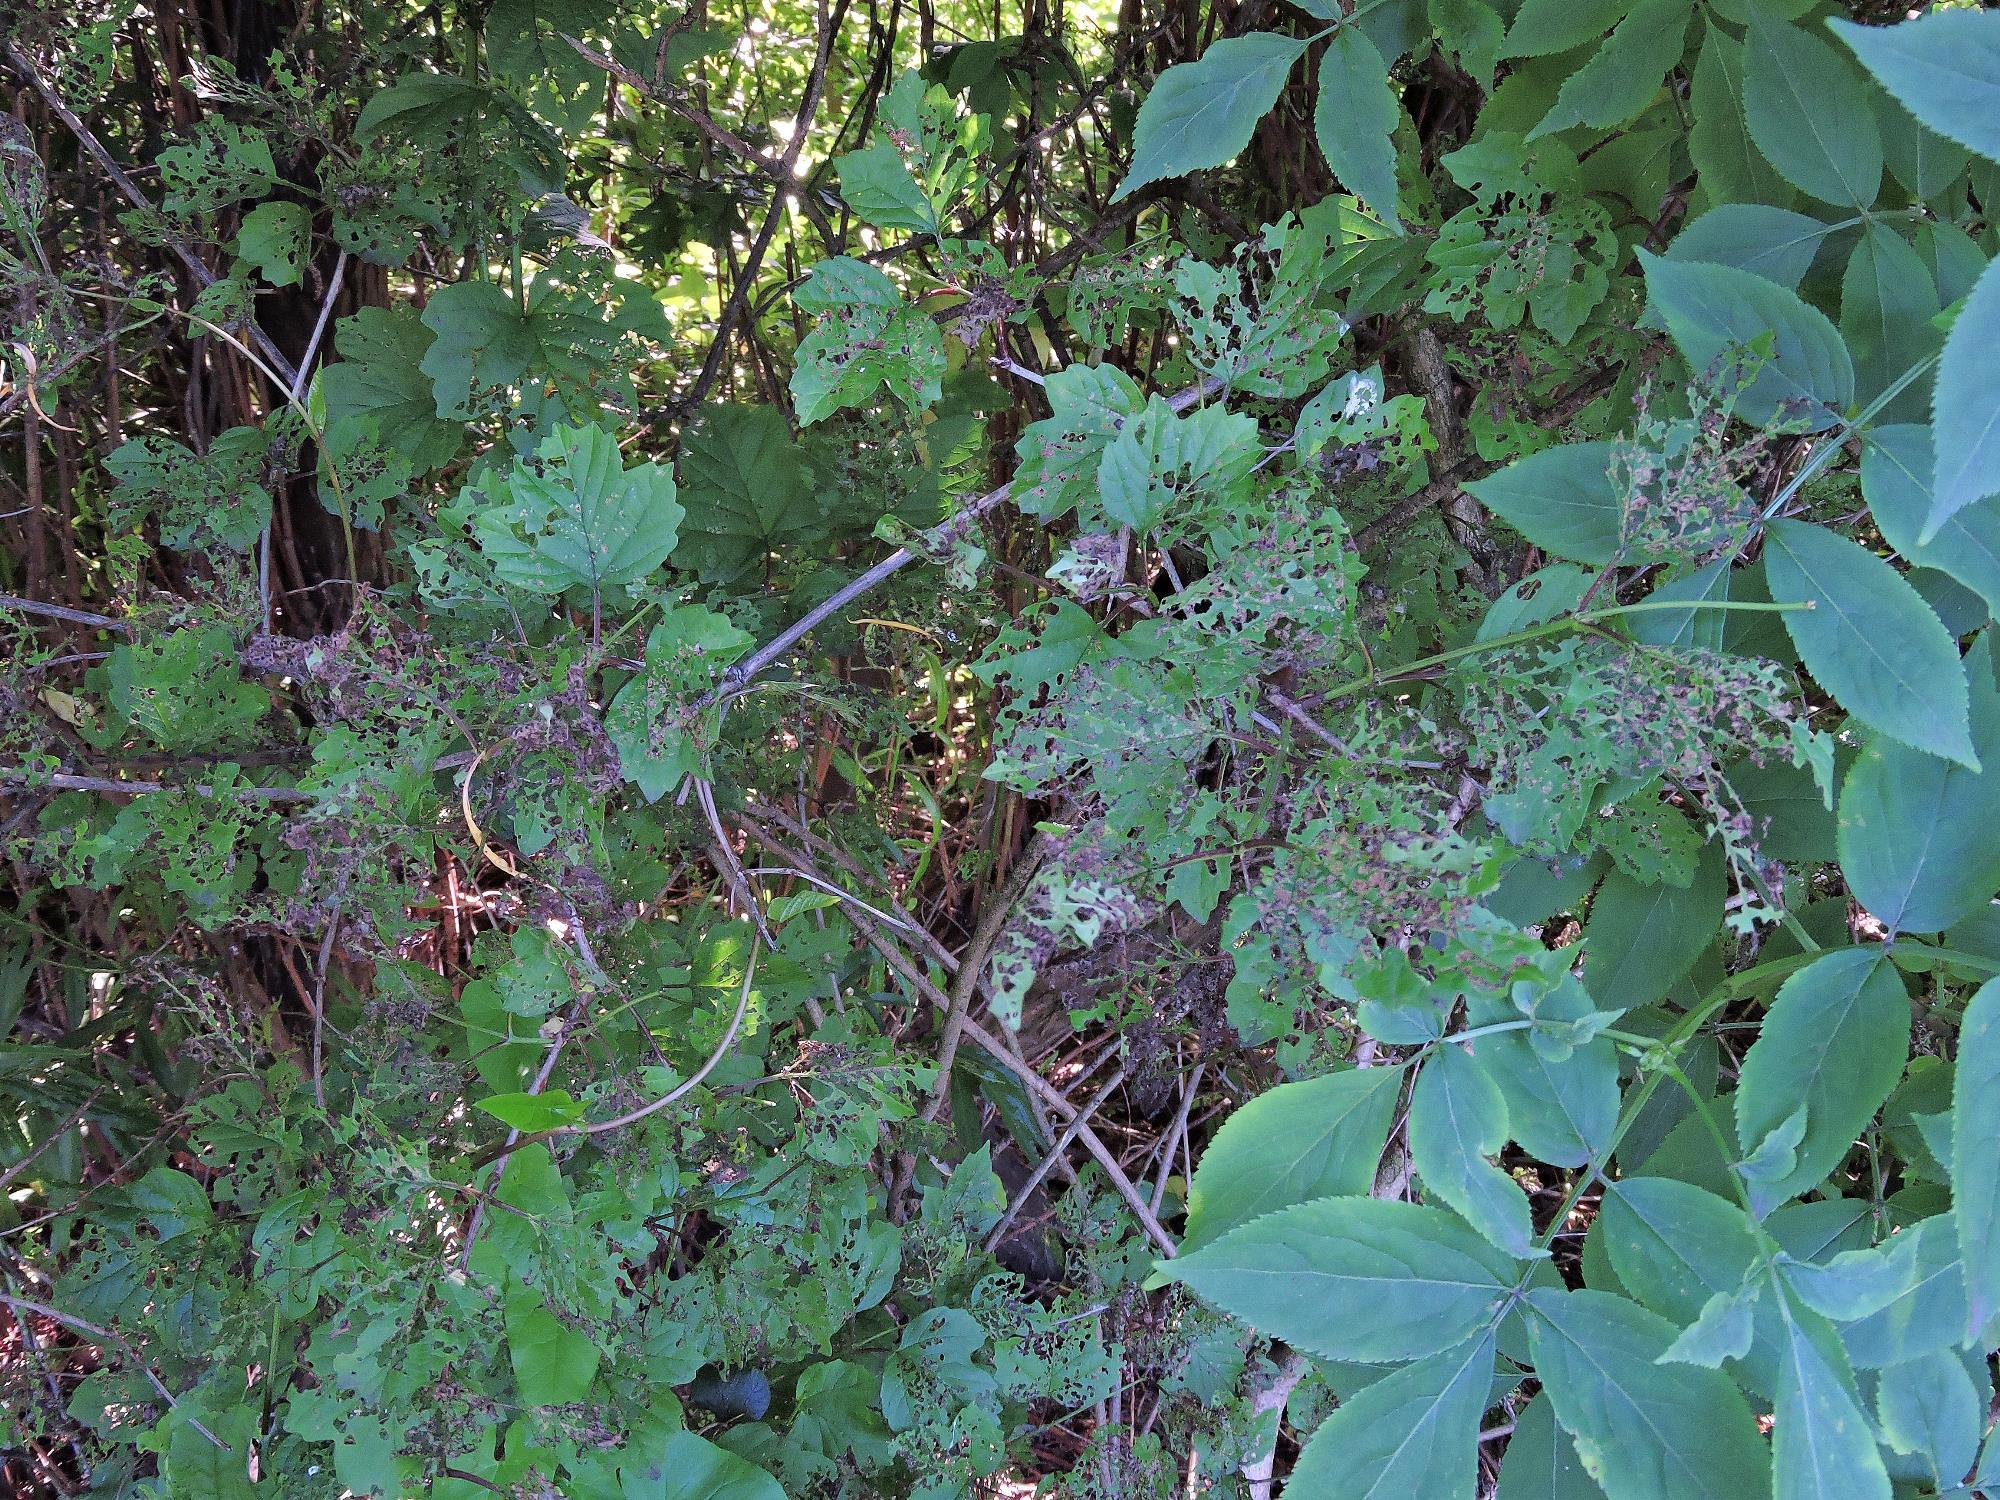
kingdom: Animalia
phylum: Arthropoda
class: Insecta
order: Coleoptera
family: Chrysomelidae
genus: Pyrrhalta
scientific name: Pyrrhalta viburni
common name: Guelder-rose leaf beetle
